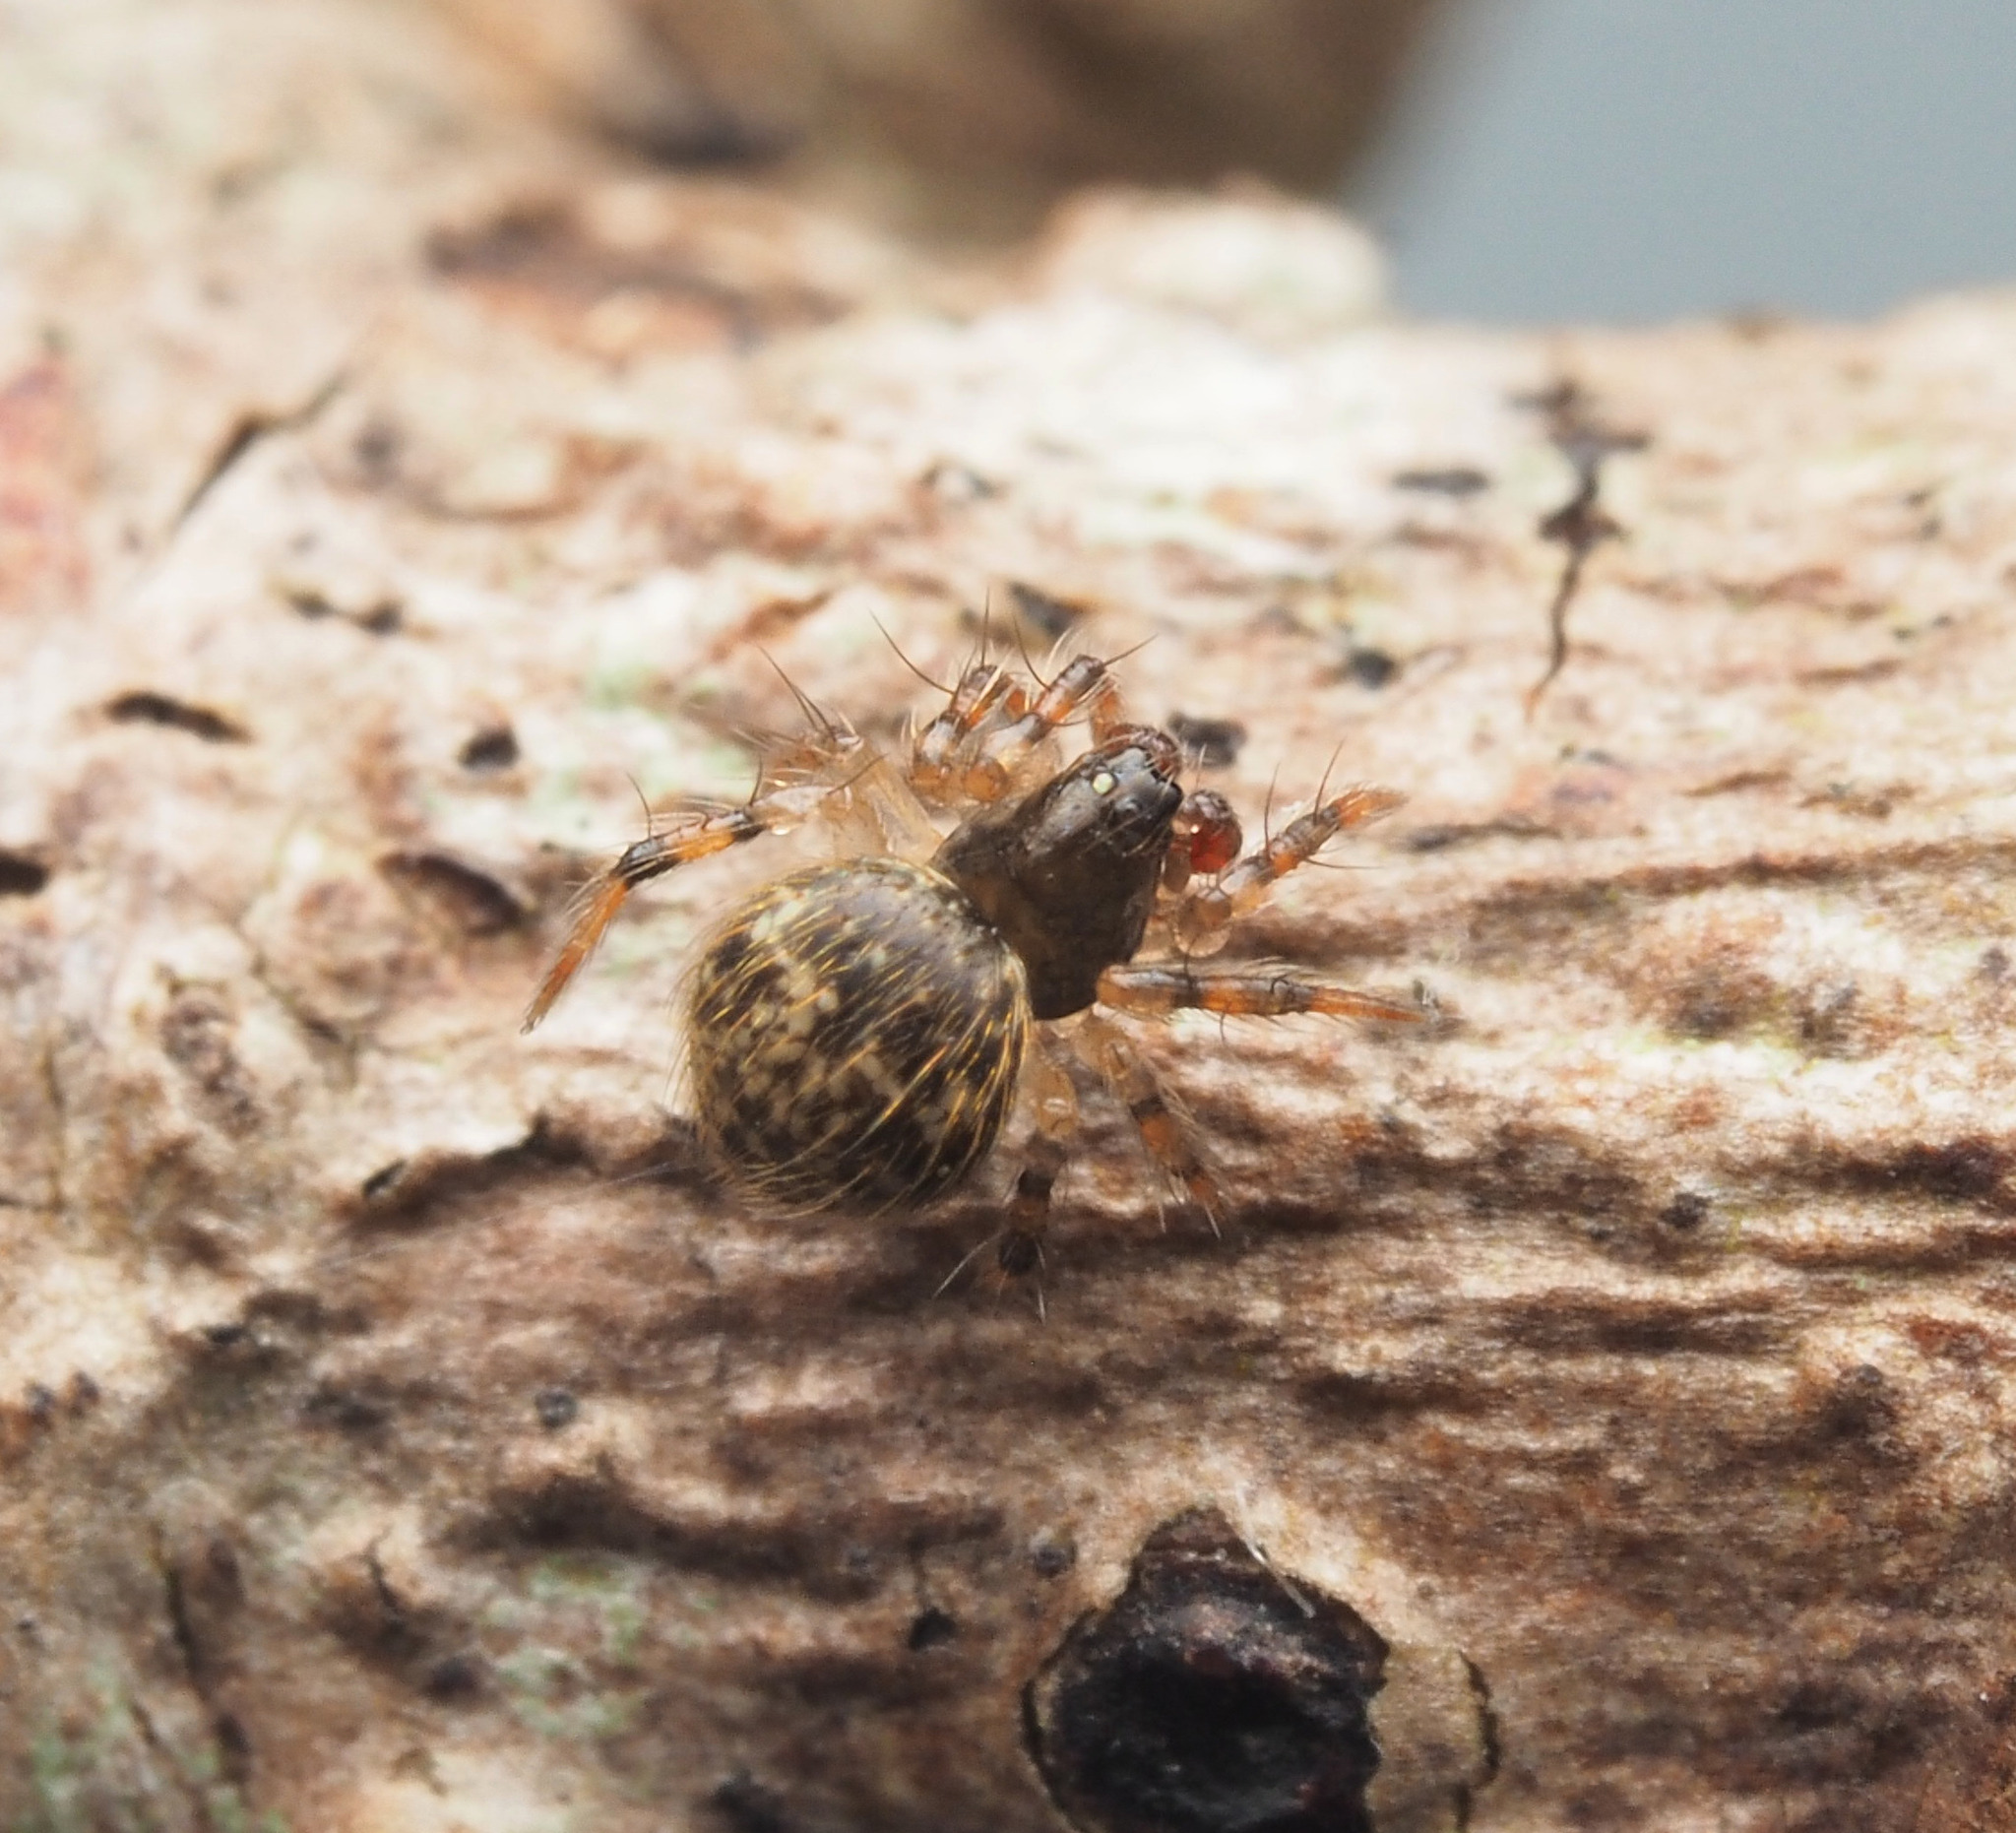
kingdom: Animalia
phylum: Arthropoda
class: Arachnida
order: Araneae
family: Theridiidae
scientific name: Theridiidae
